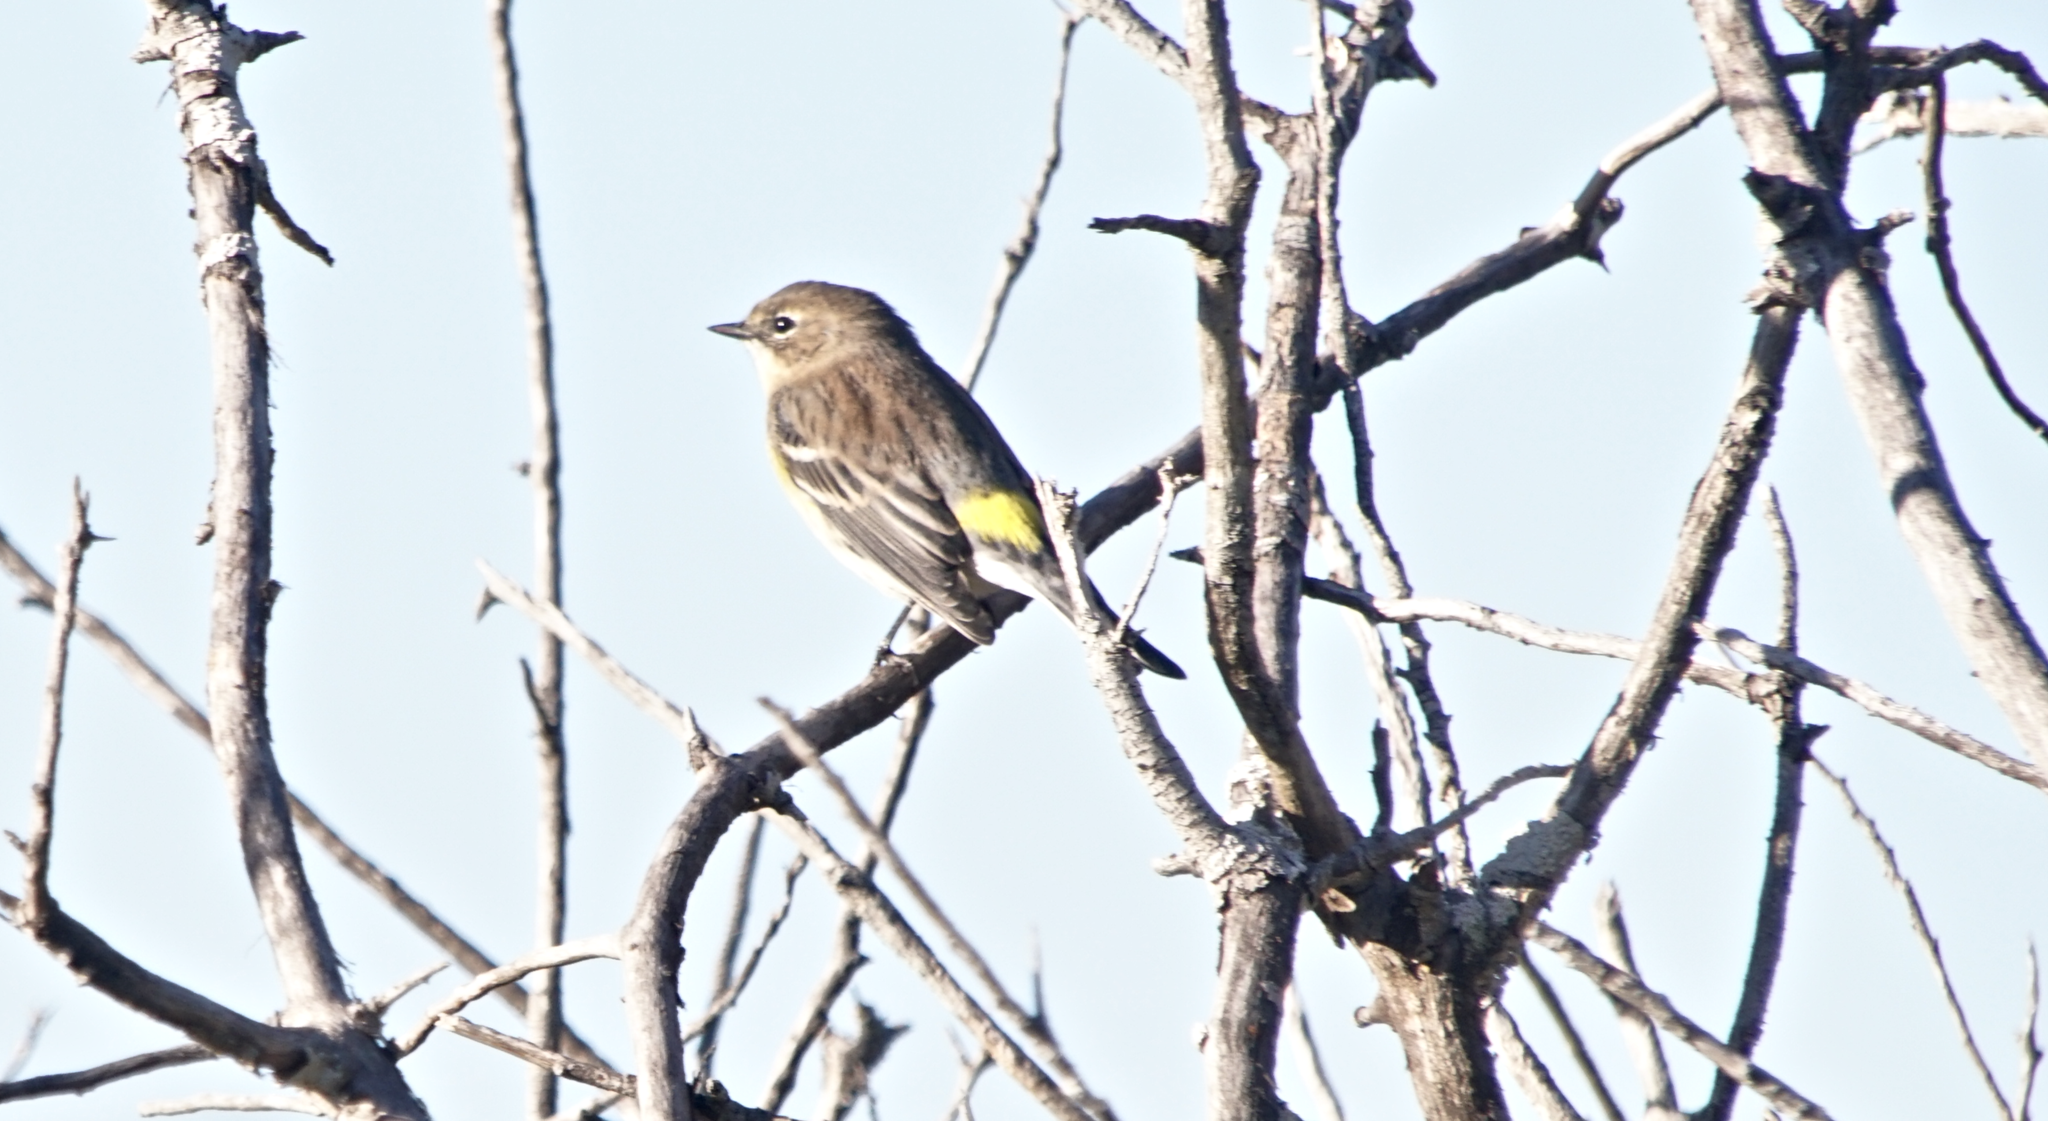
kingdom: Animalia
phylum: Chordata
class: Aves
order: Passeriformes
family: Parulidae
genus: Setophaga
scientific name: Setophaga coronata
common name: Myrtle warbler
